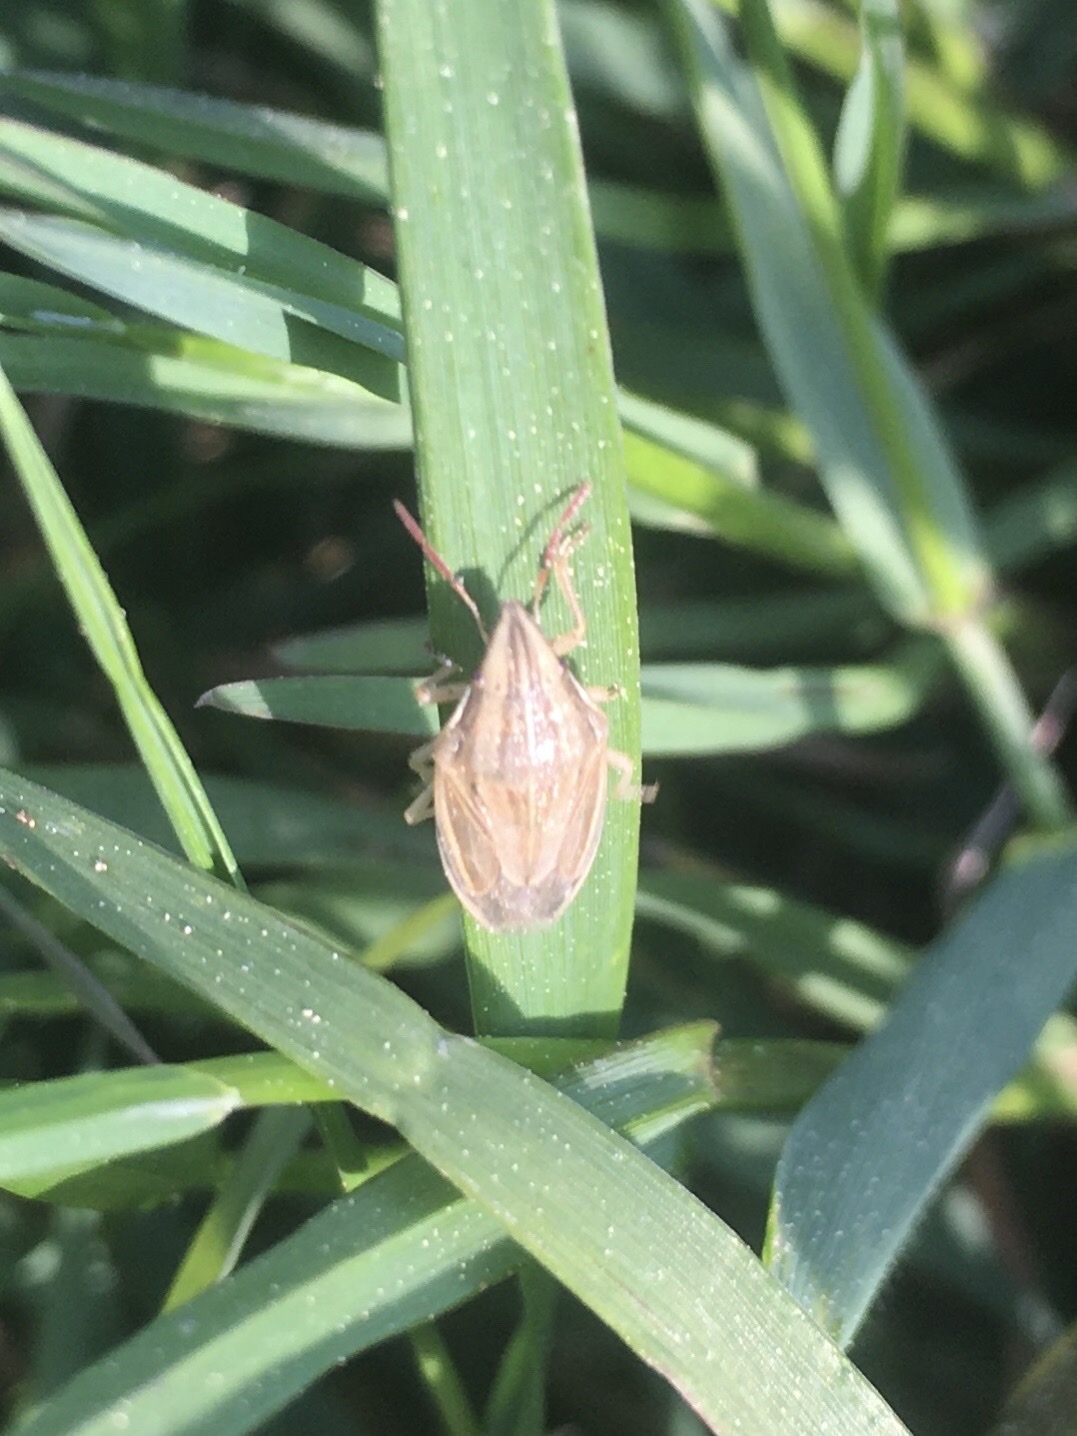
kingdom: Animalia
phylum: Arthropoda
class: Insecta
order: Hemiptera
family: Pentatomidae
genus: Aelia
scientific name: Aelia acuminata
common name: Bishop's mitre
